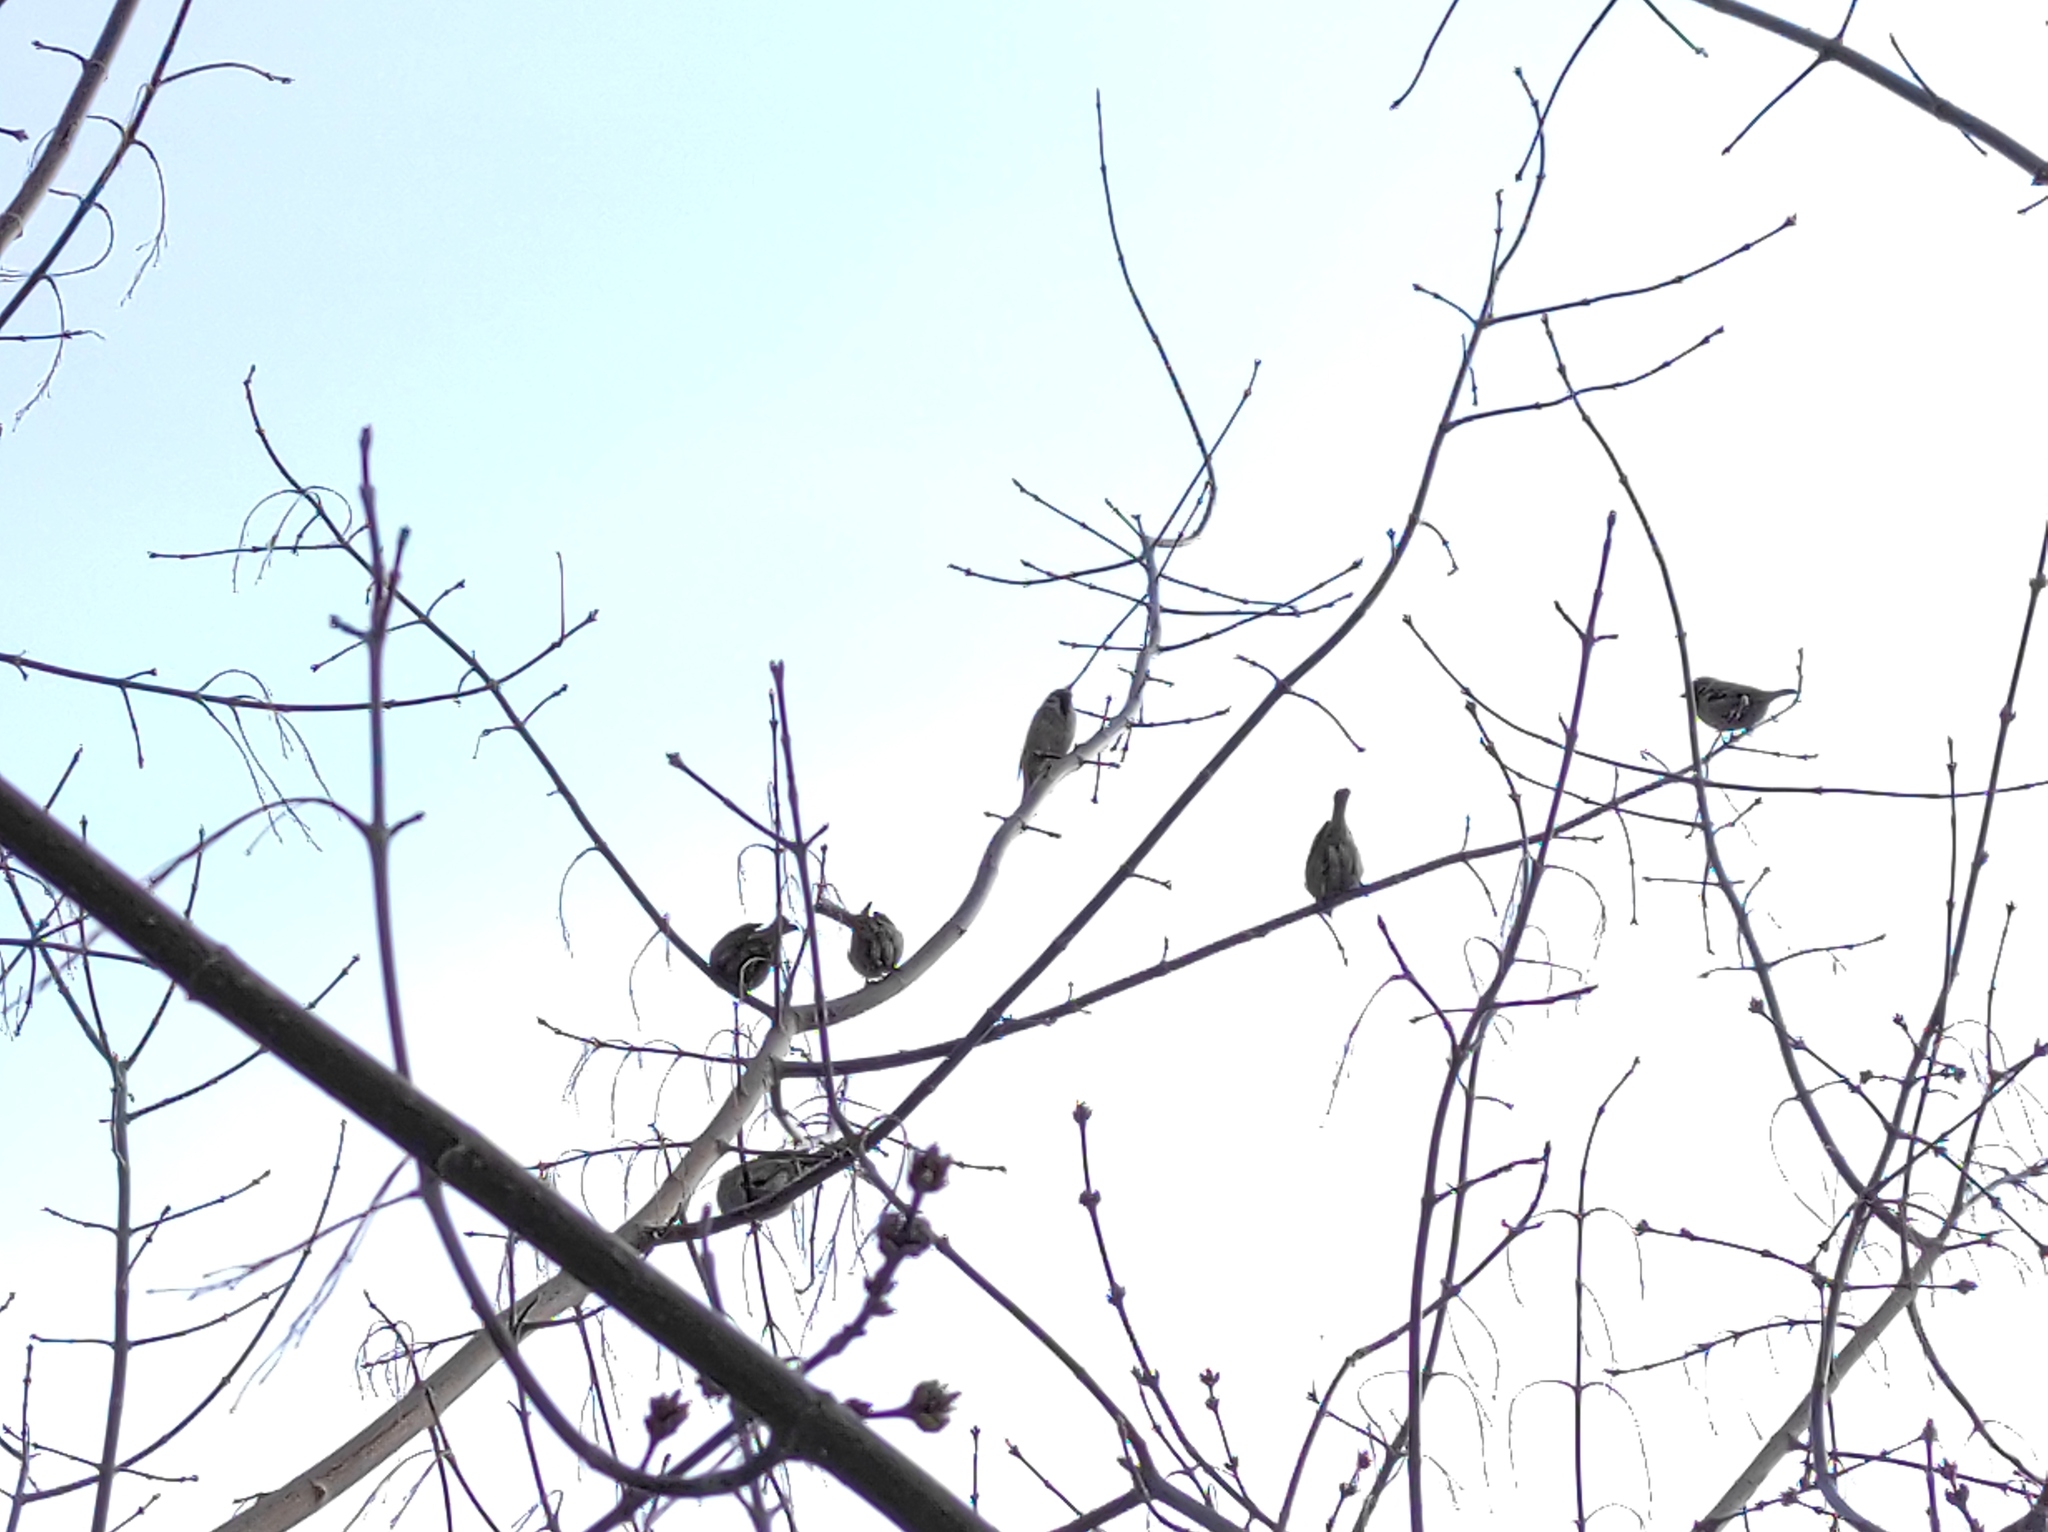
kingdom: Animalia
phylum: Chordata
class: Aves
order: Passeriformes
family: Passeridae
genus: Passer
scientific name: Passer montanus
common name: Eurasian tree sparrow
